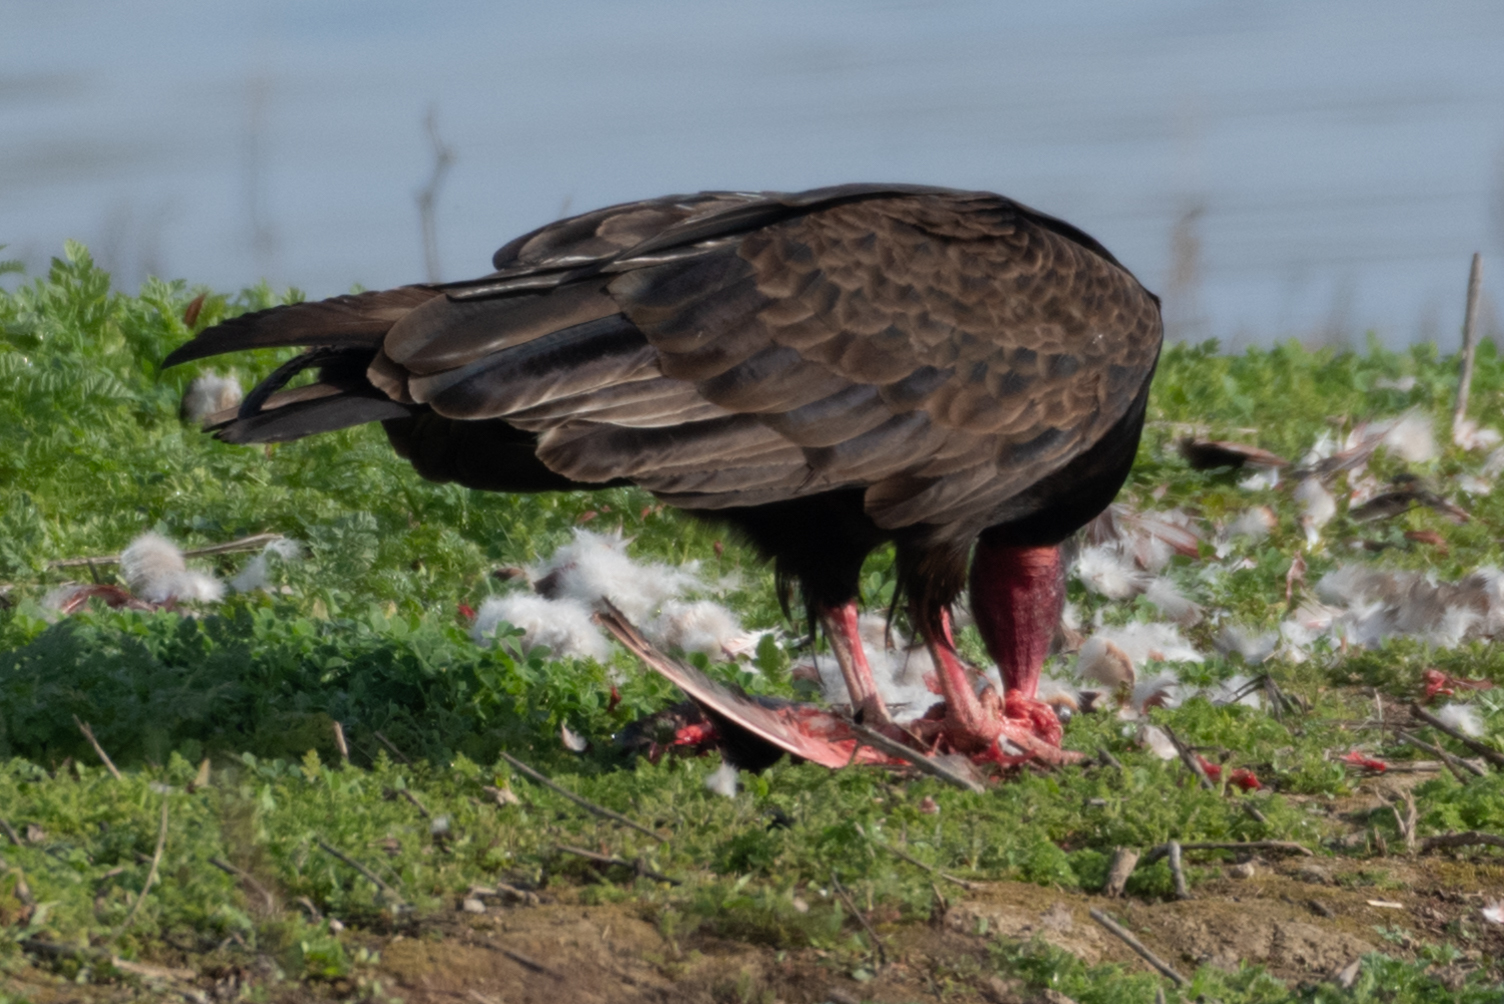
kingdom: Animalia
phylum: Chordata
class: Aves
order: Accipitriformes
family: Cathartidae
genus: Cathartes
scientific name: Cathartes aura
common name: Turkey vulture
